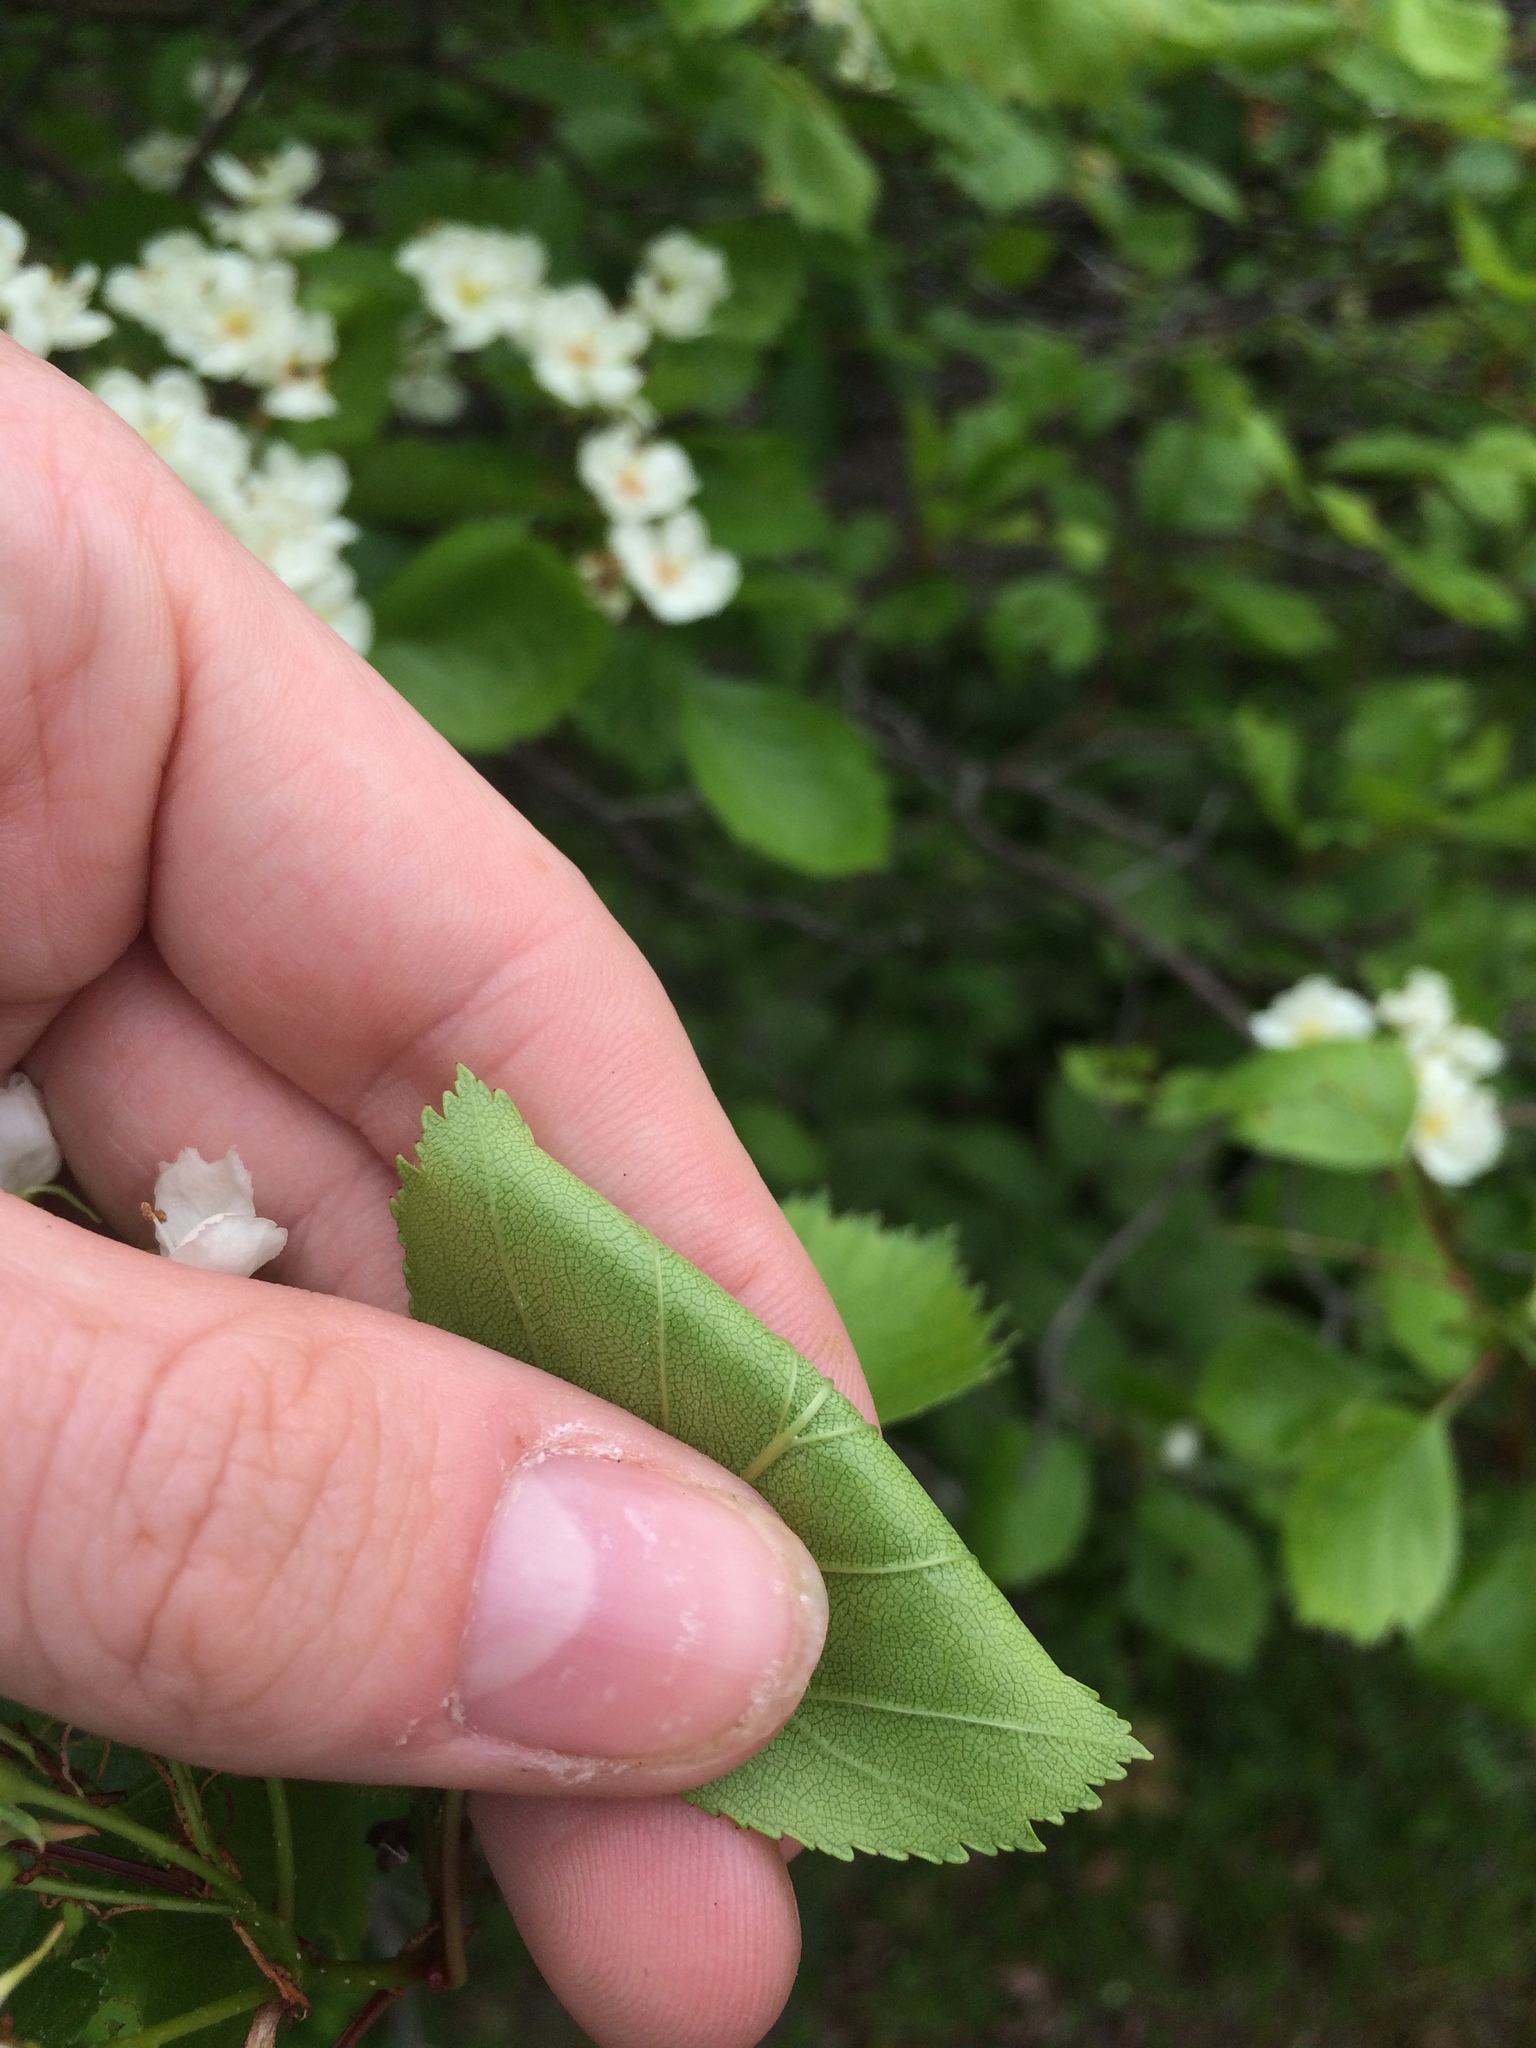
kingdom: Plantae
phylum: Tracheophyta
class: Magnoliopsida
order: Rosales
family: Rosaceae
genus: Crataegus
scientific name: Crataegus chrysocarpa
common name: Fire-berry hawthorn
